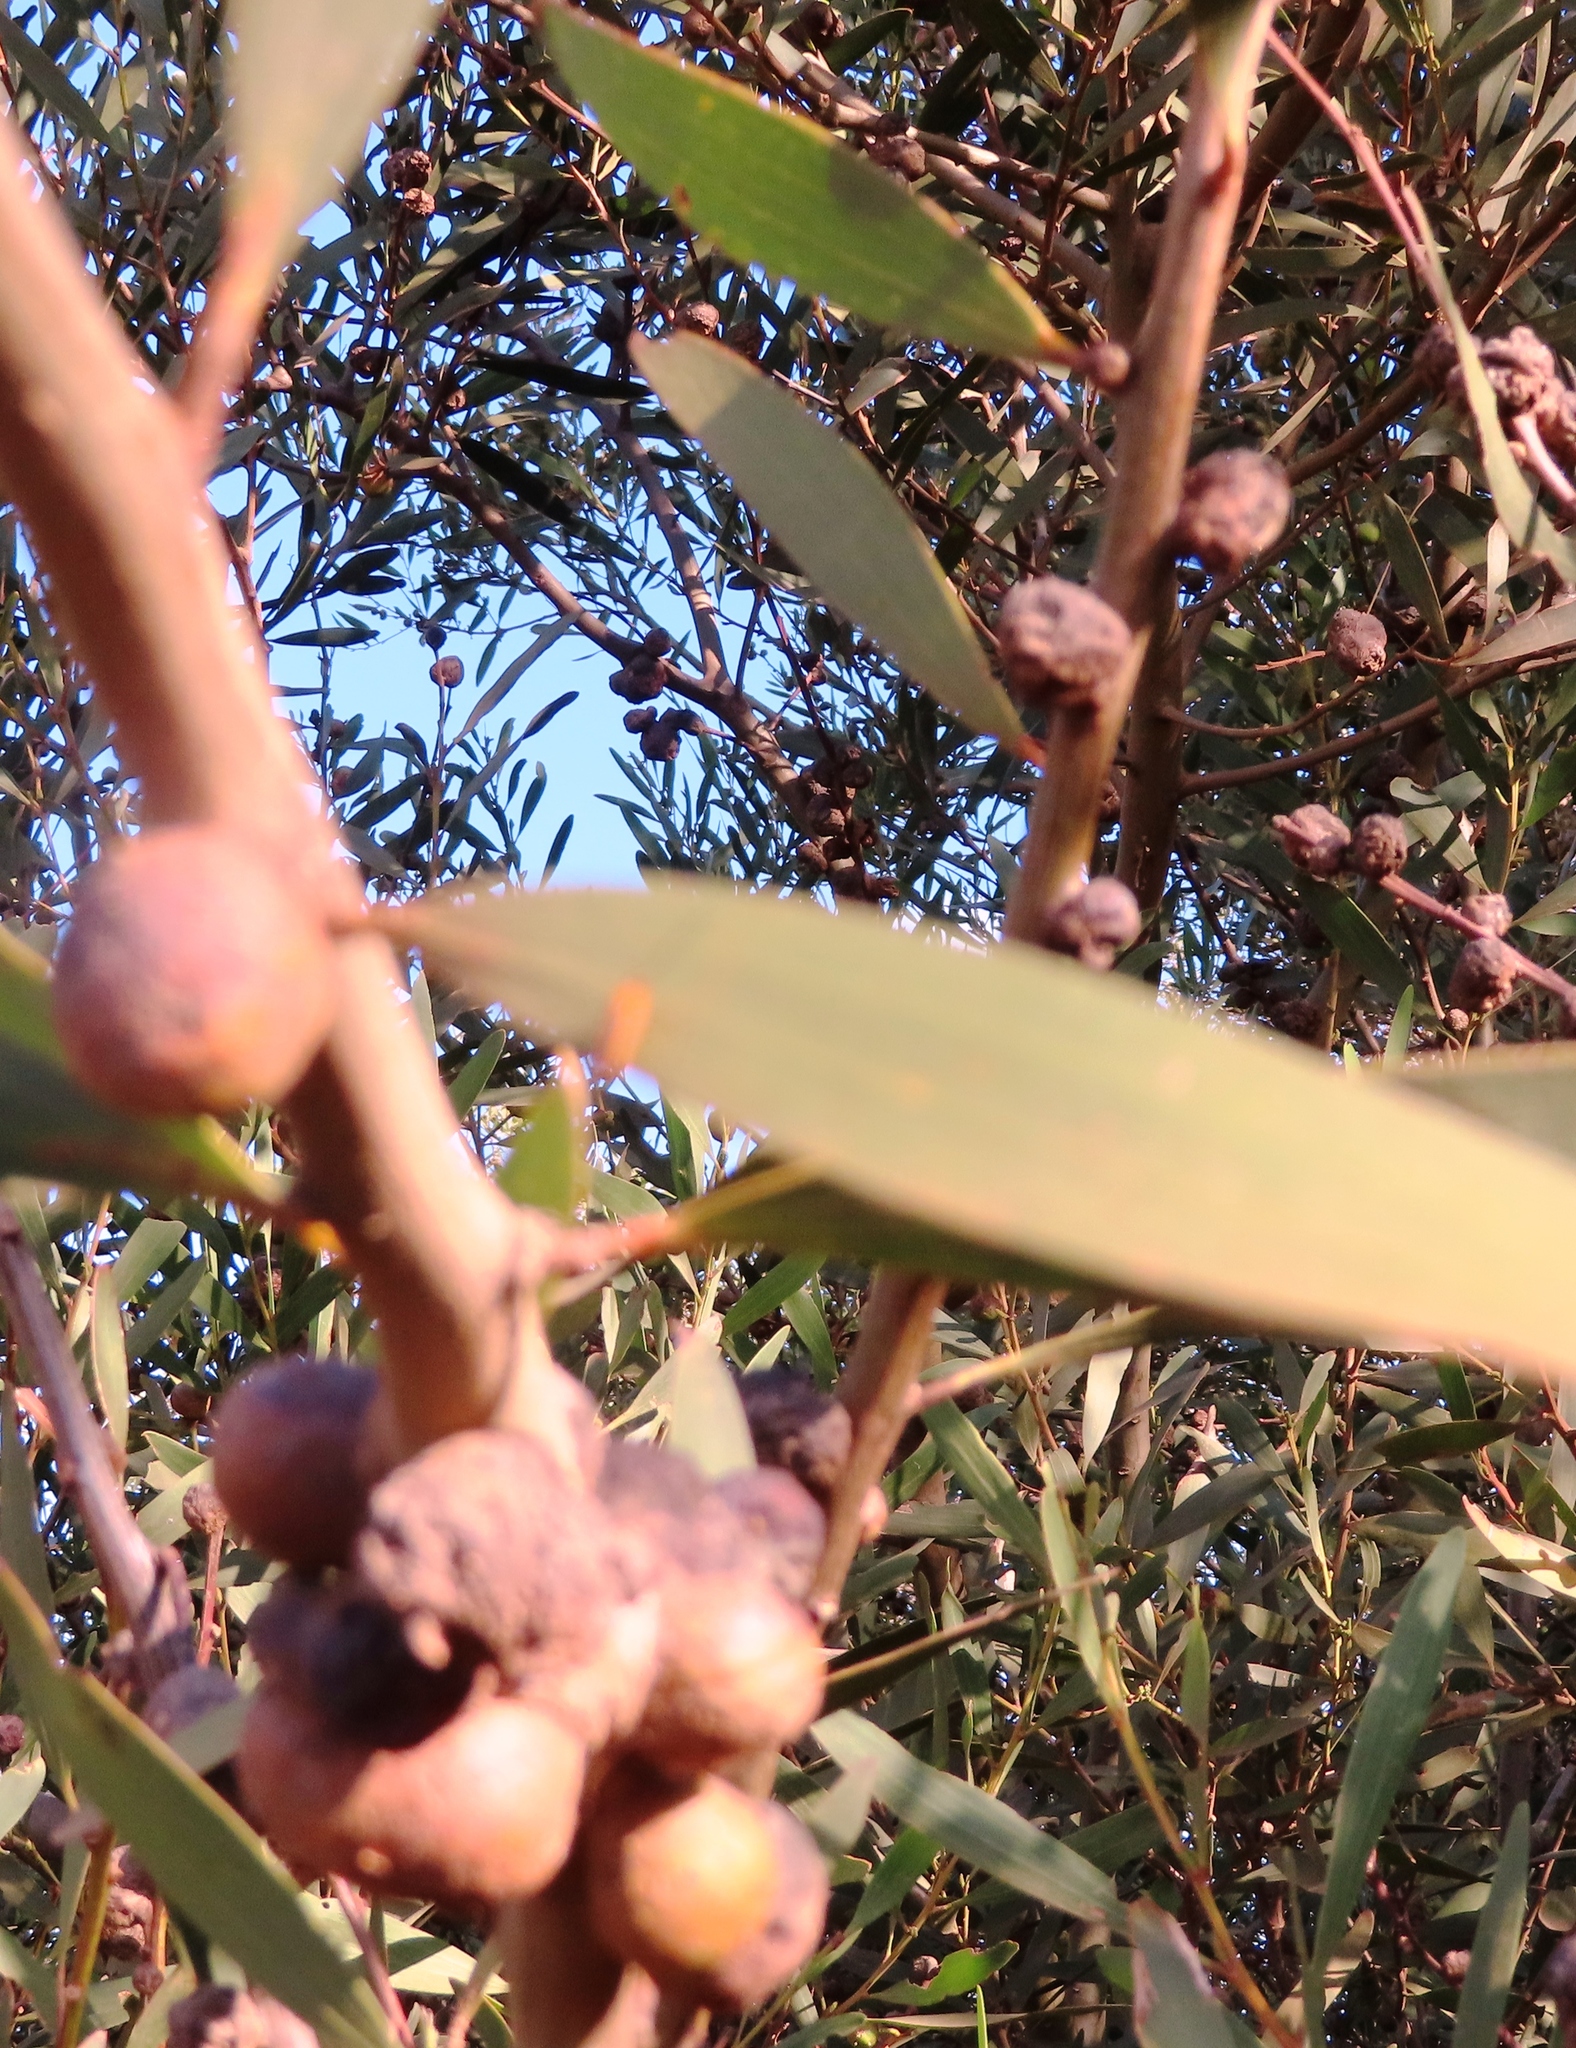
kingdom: Animalia
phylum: Arthropoda
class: Insecta
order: Hymenoptera
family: Pteromalidae
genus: Trichilogaster
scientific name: Trichilogaster acaciaelongifoliae
